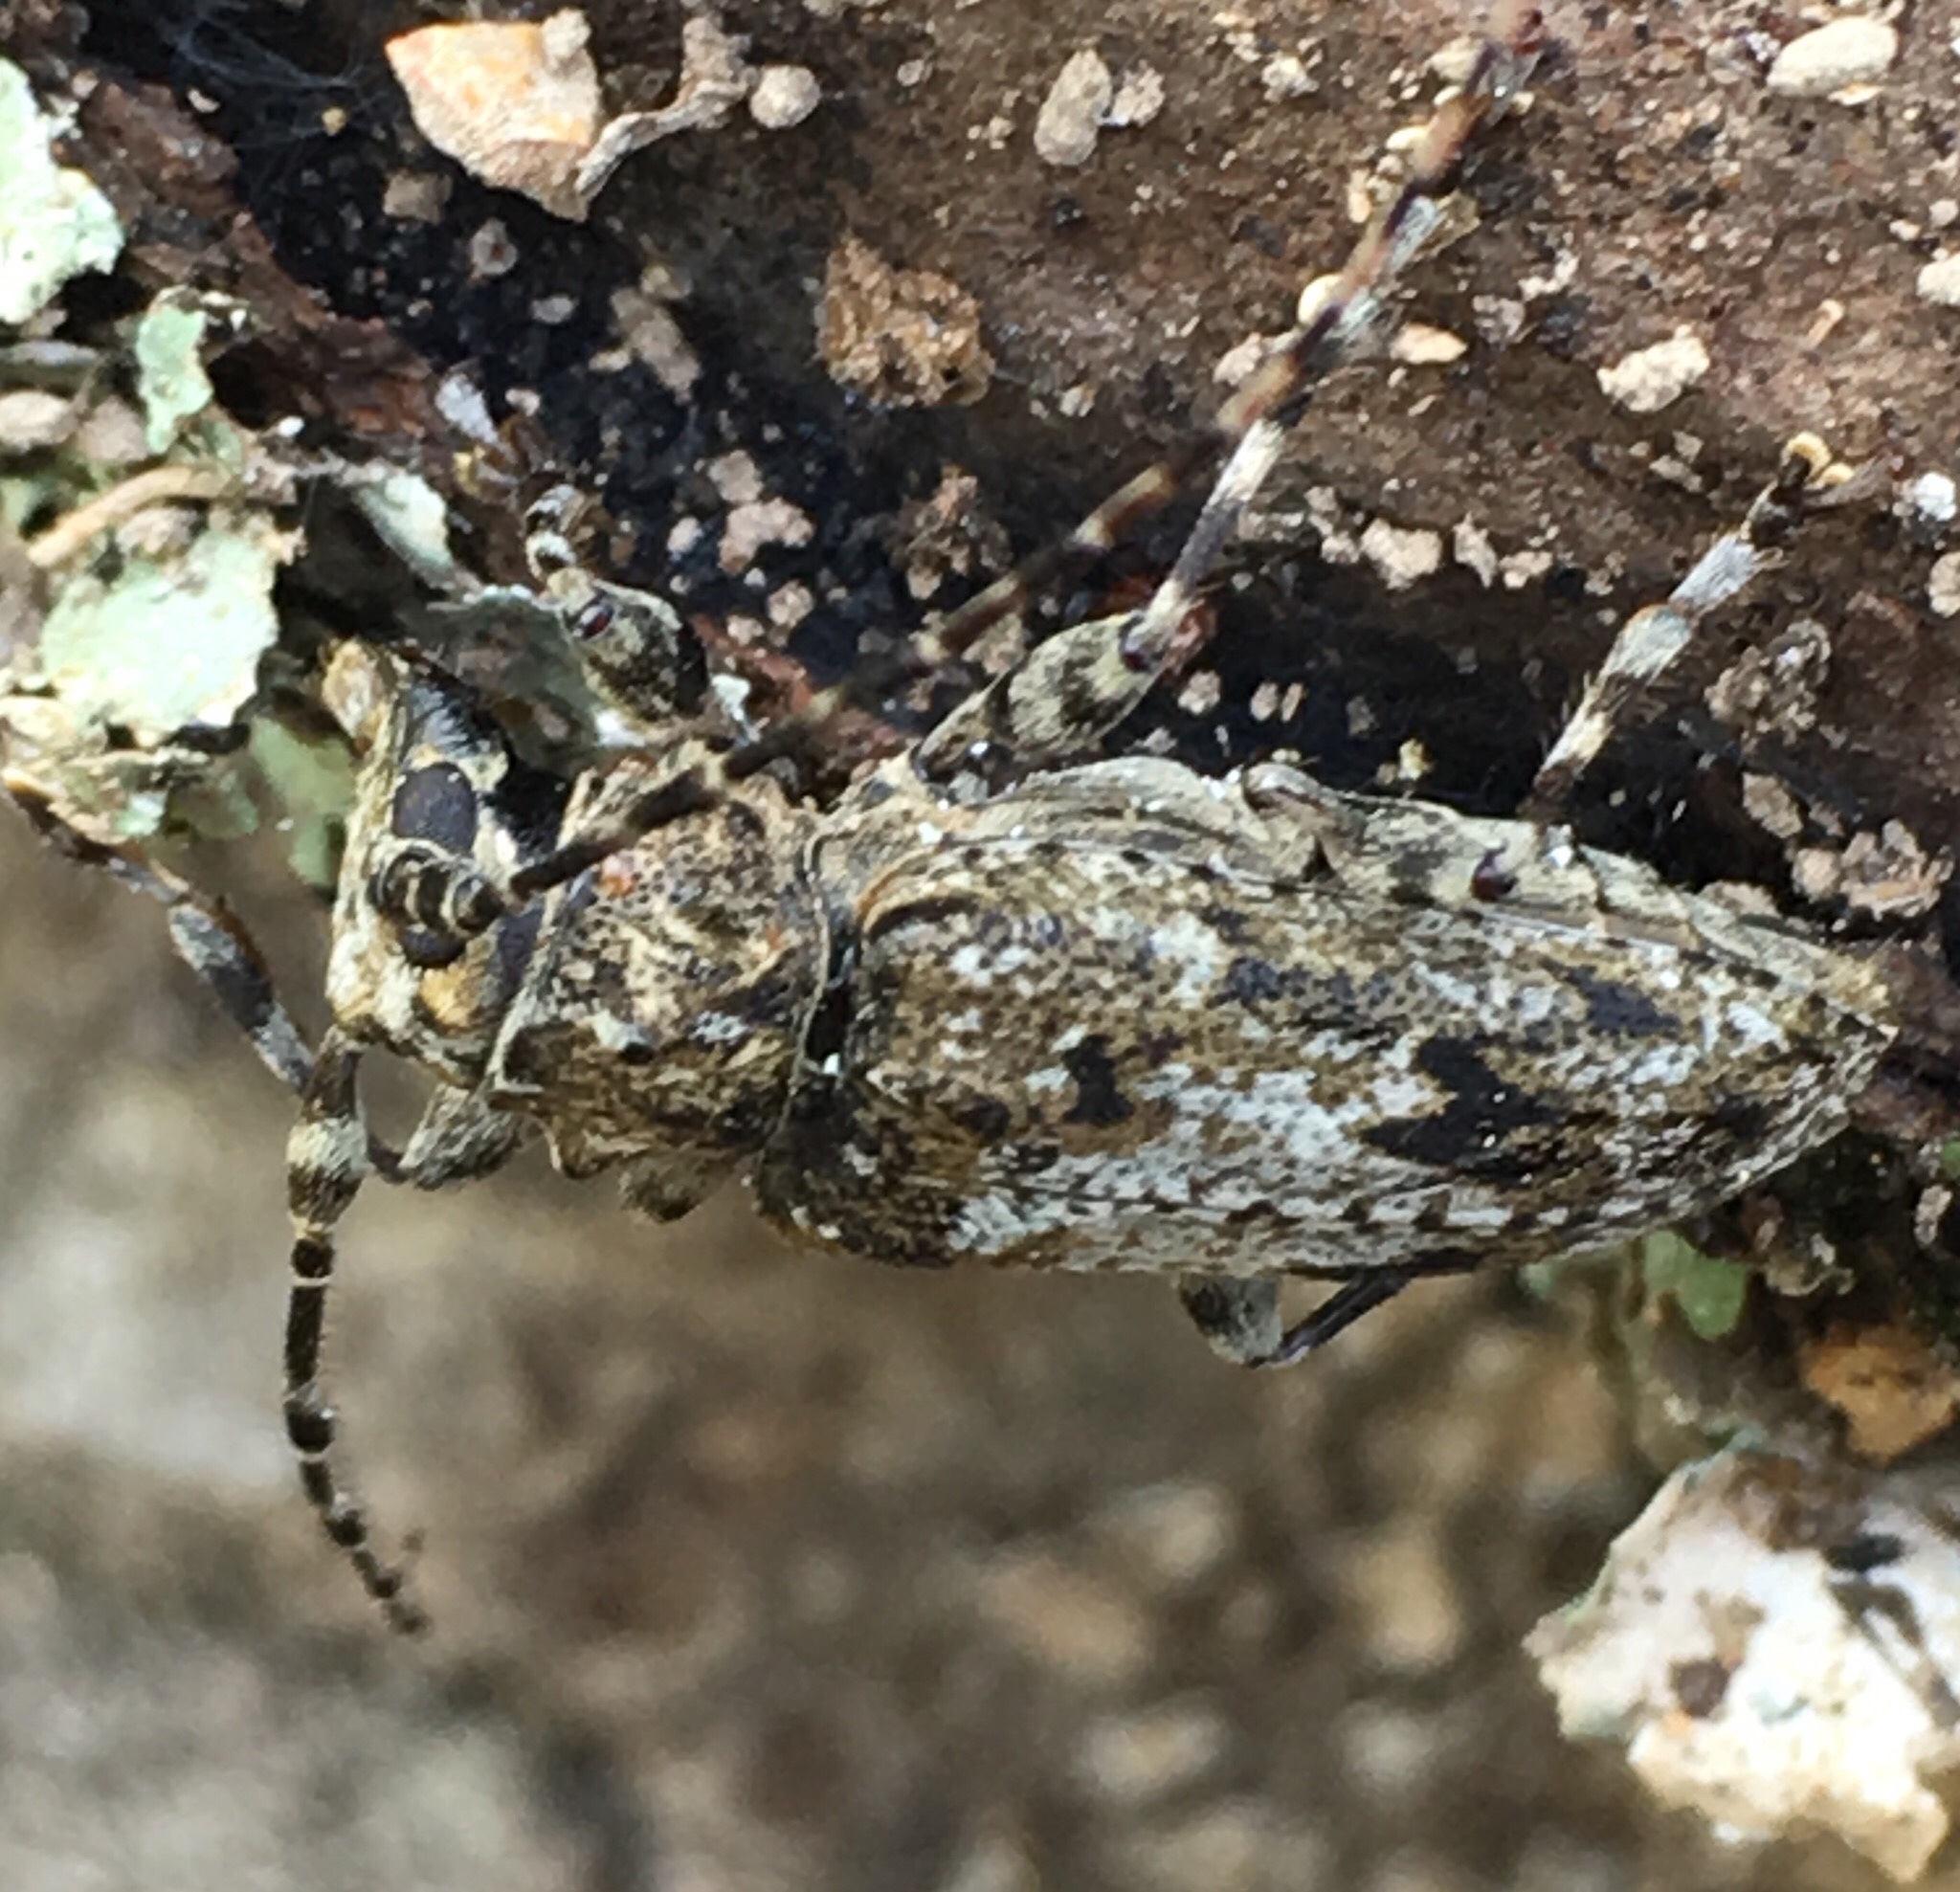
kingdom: Animalia
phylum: Arthropoda
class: Insecta
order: Coleoptera
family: Cerambycidae
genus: Aegomorphus
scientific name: Aegomorphus modestus
